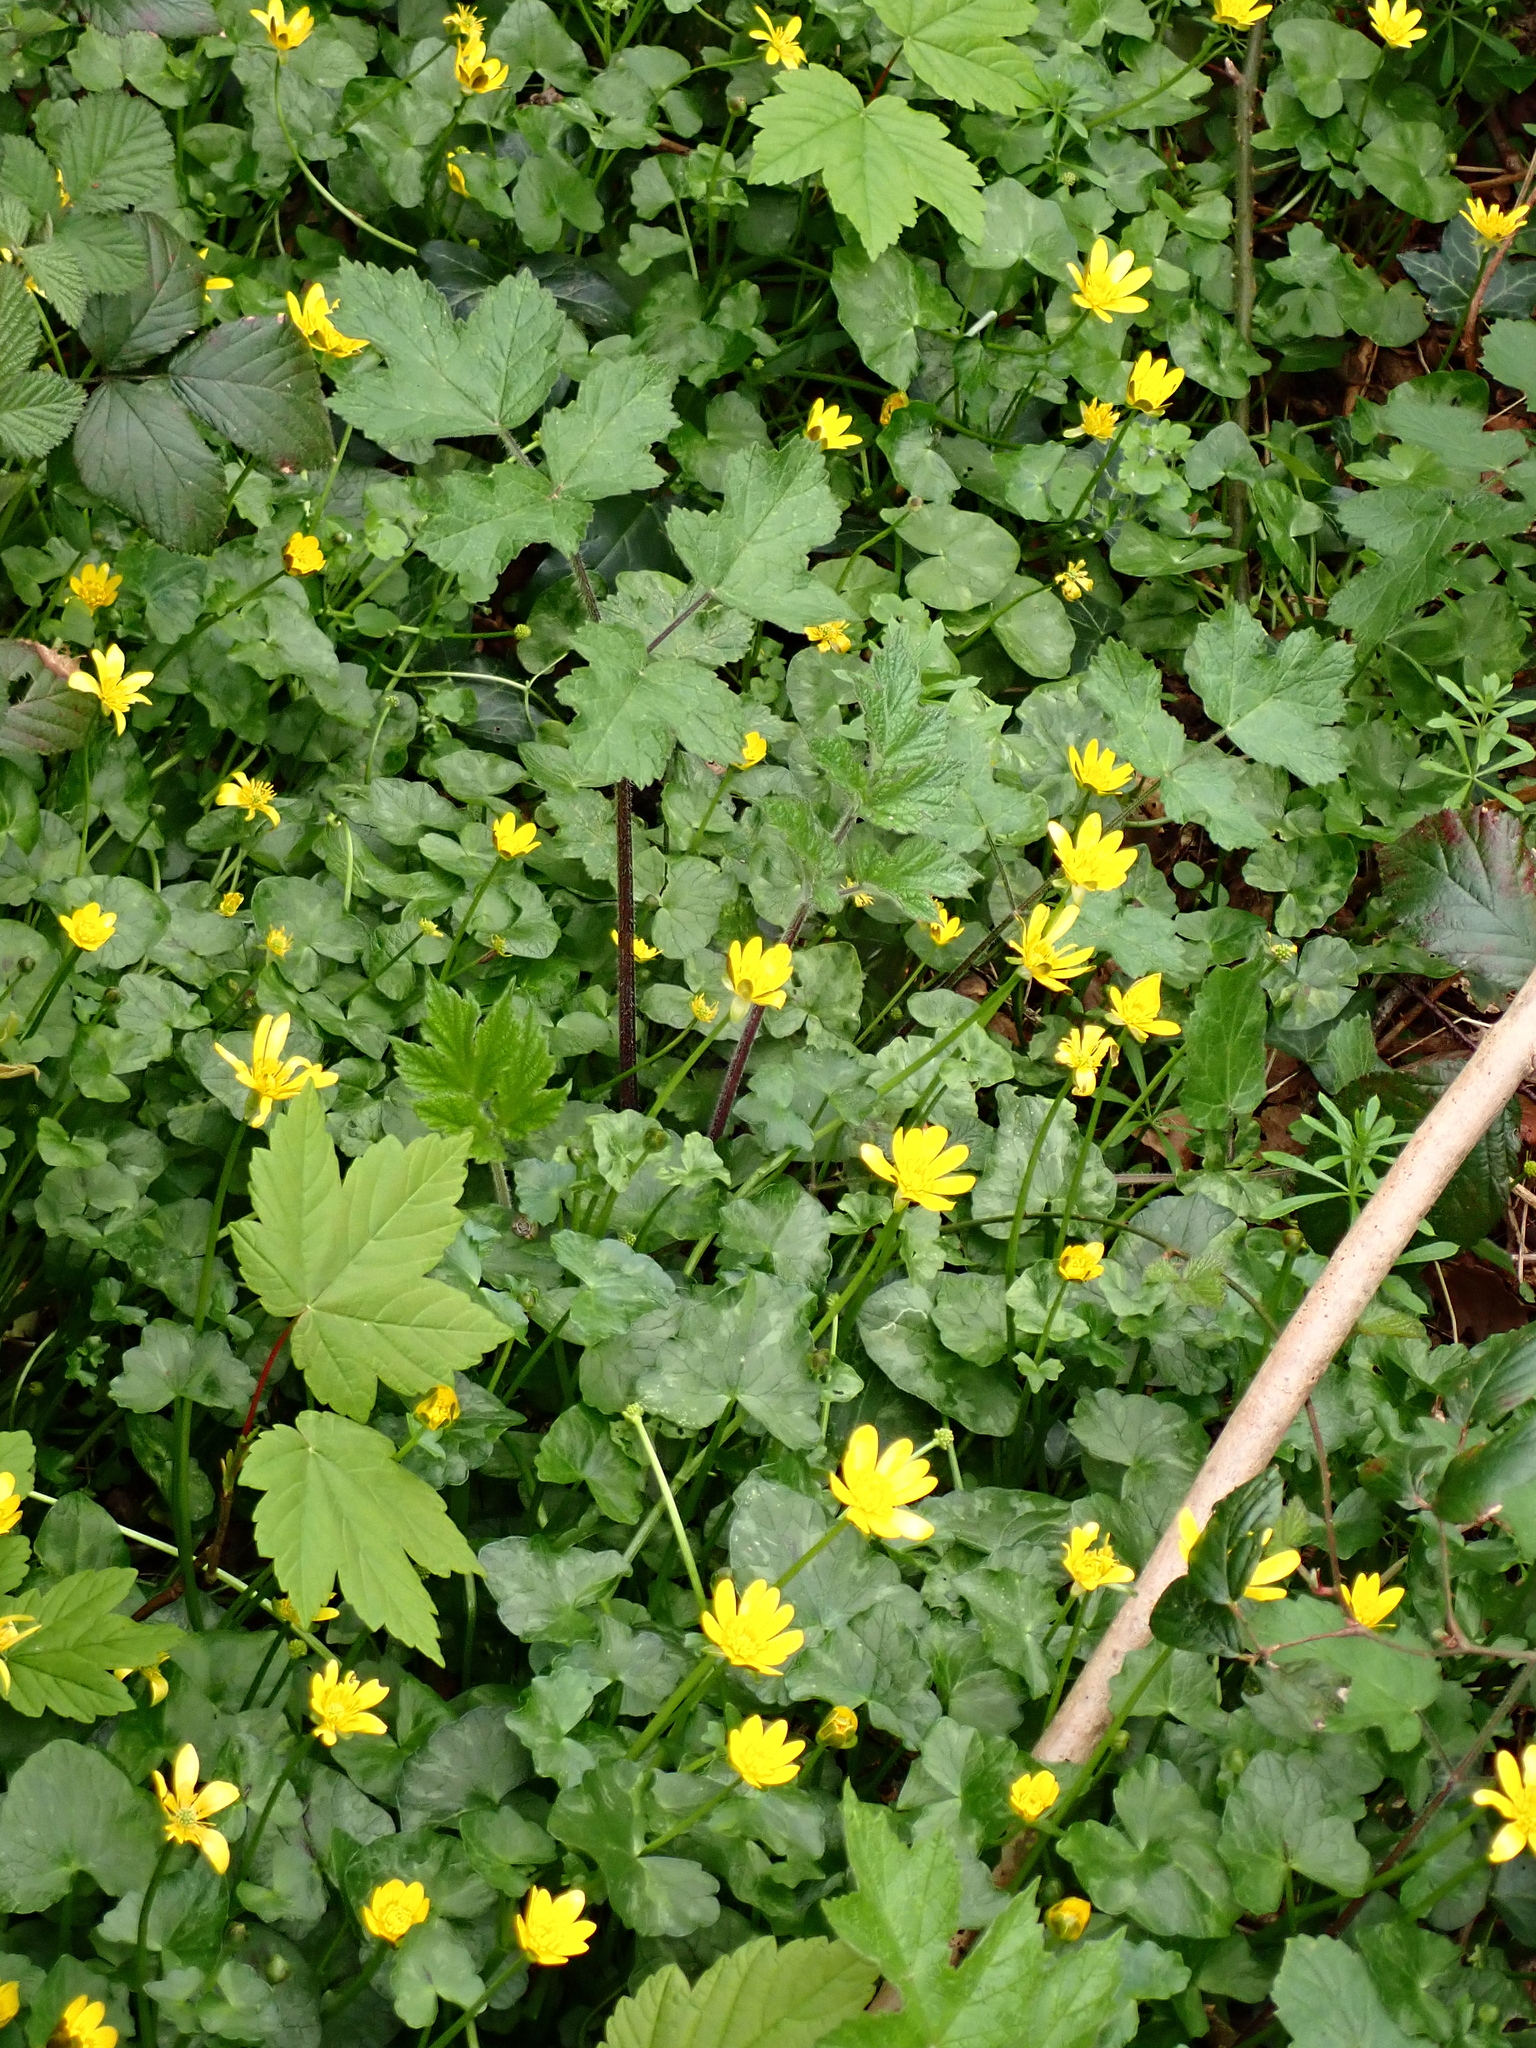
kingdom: Plantae
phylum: Tracheophyta
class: Magnoliopsida
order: Ranunculales
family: Ranunculaceae
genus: Ficaria
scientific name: Ficaria verna
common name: Lesser celandine
